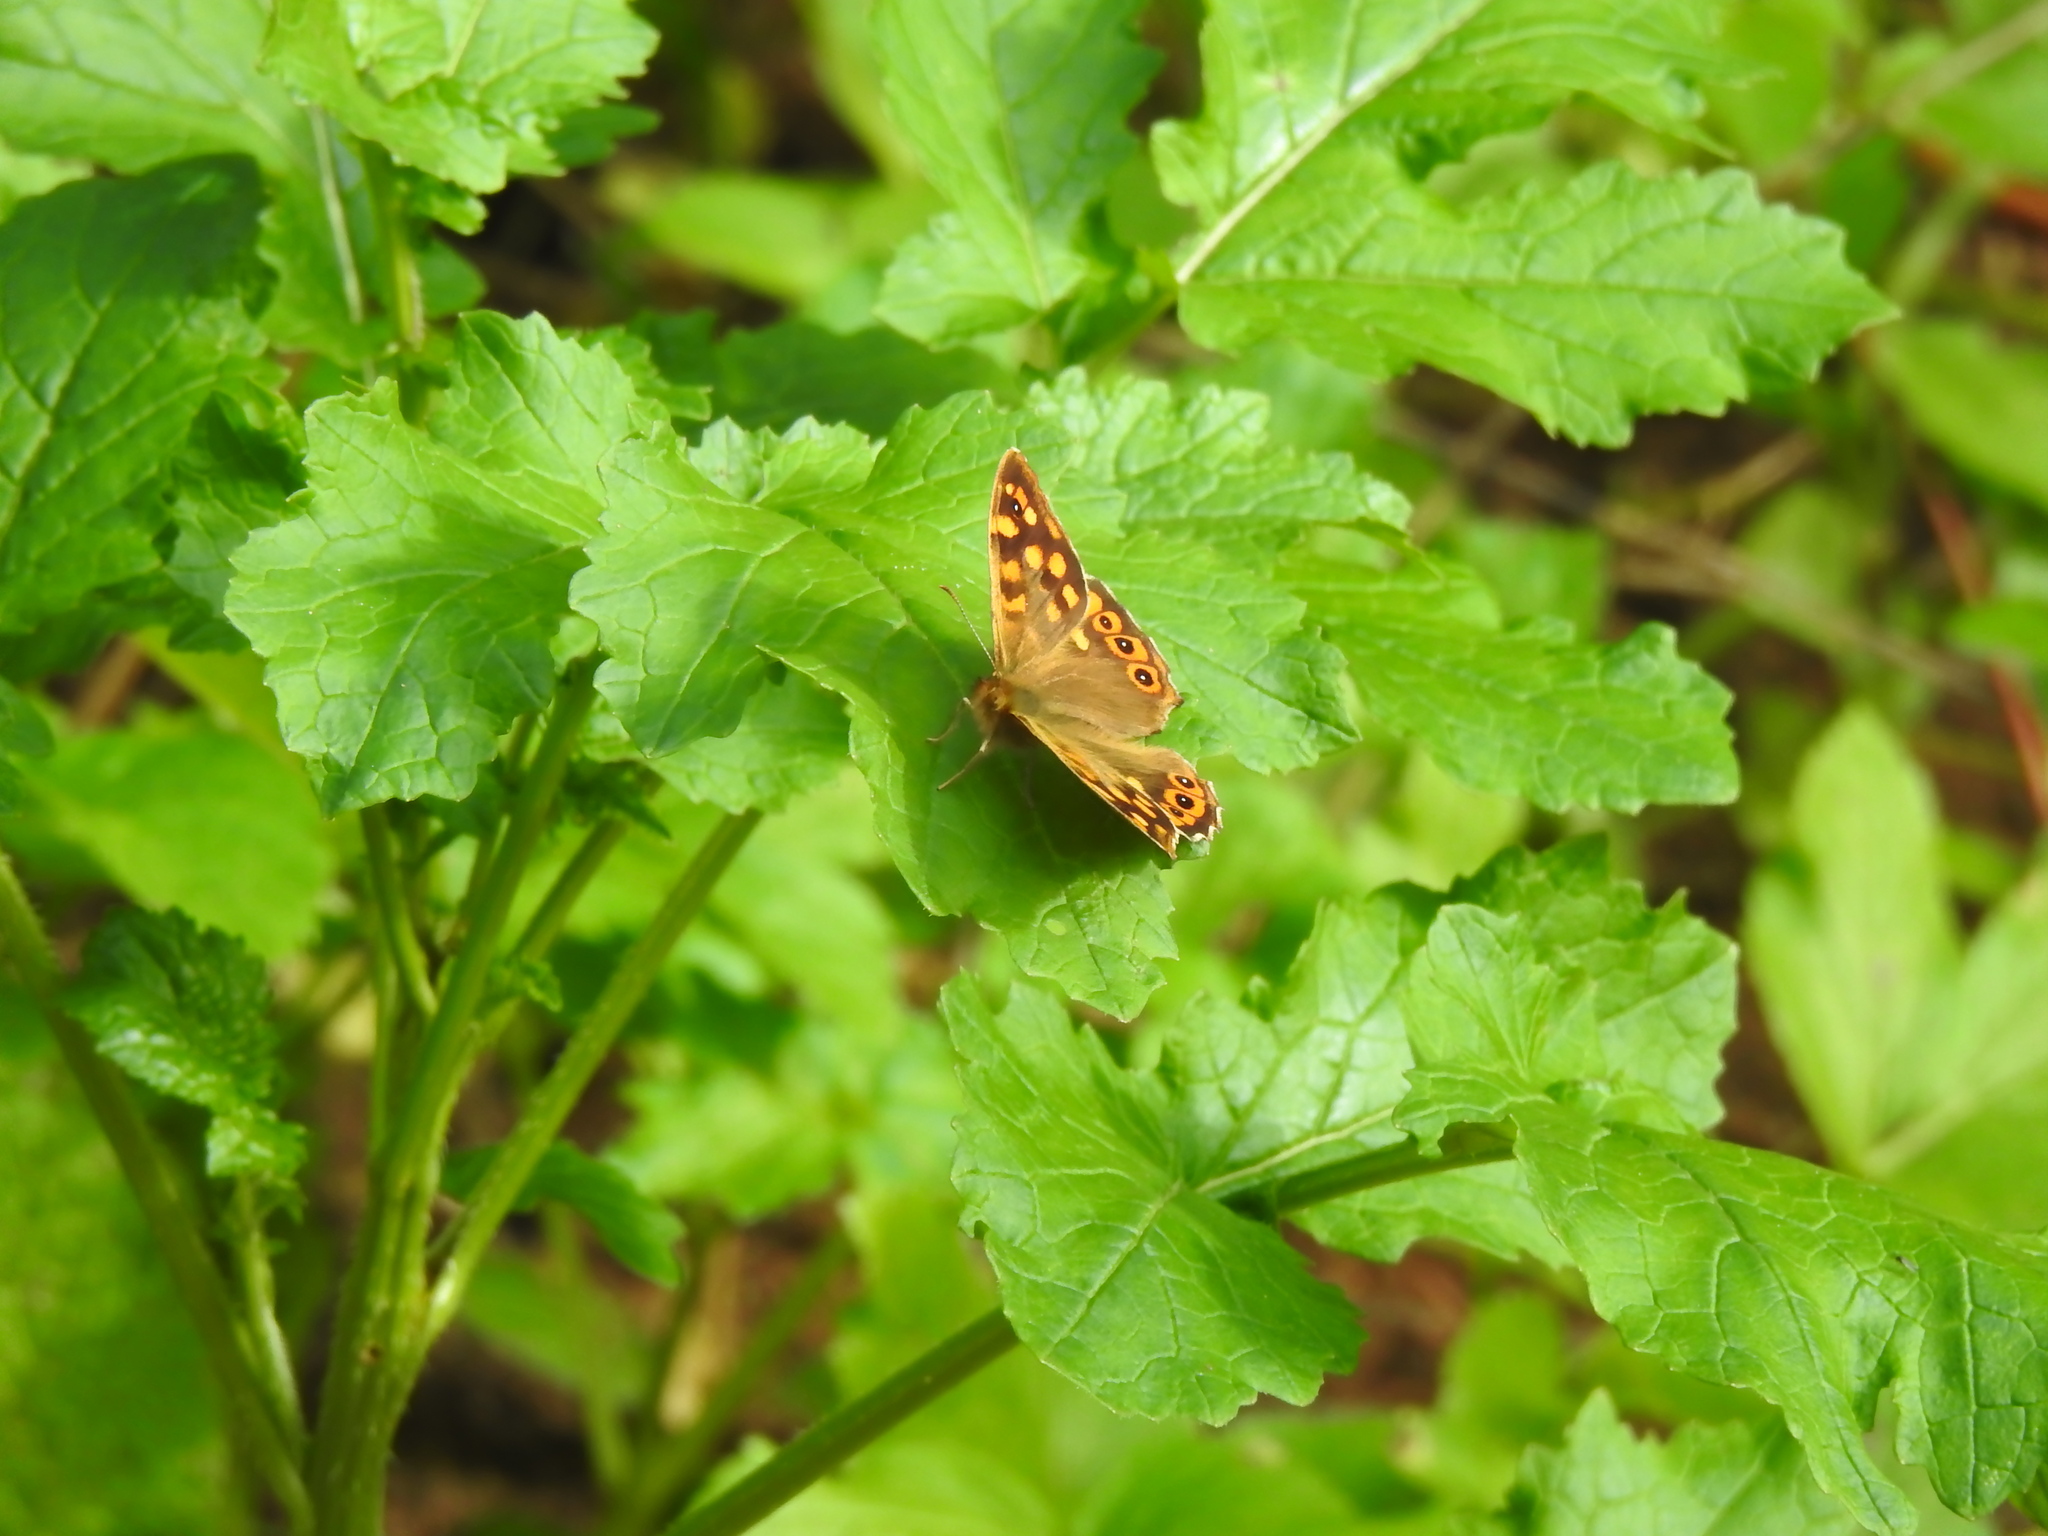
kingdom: Animalia
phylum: Arthropoda
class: Insecta
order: Lepidoptera
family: Nymphalidae
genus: Pararge
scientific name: Pararge aegeria
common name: Speckled wood
